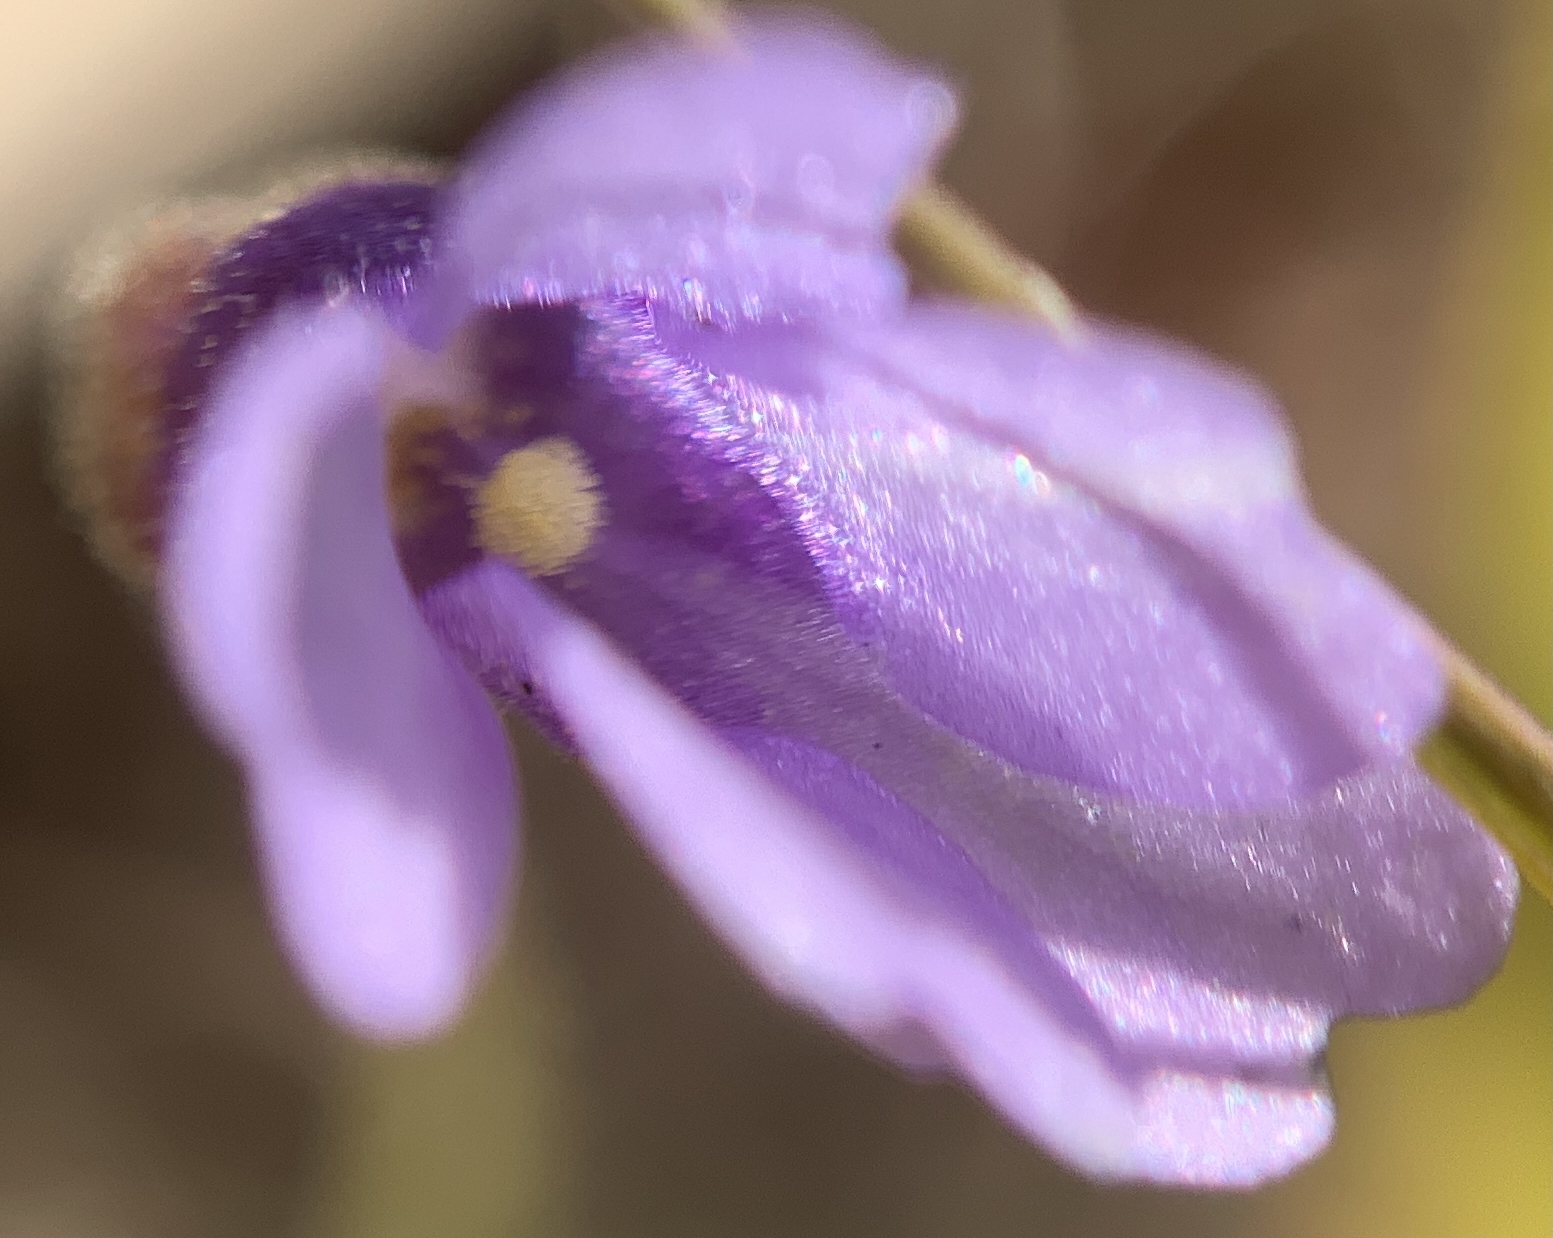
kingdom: Plantae
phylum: Tracheophyta
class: Magnoliopsida
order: Lamiales
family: Lentibulariaceae
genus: Pinguicula
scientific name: Pinguicula pumila
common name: Small butterwort
